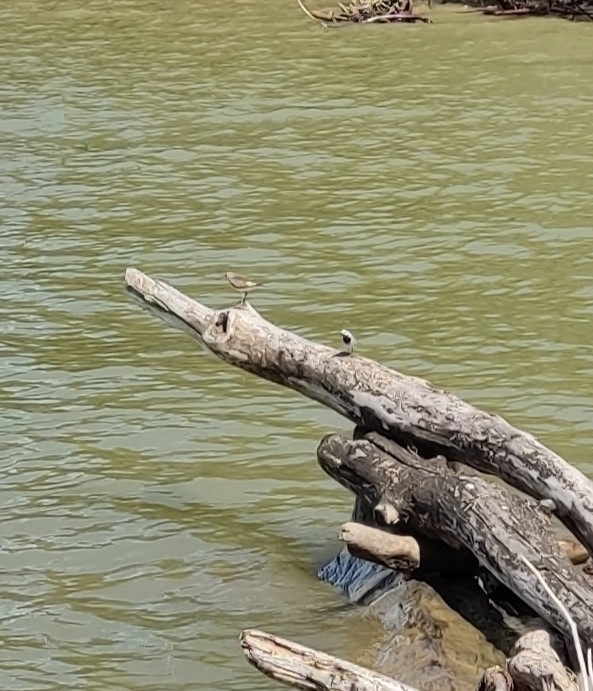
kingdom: Animalia
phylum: Chordata
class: Aves
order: Charadriiformes
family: Scolopacidae
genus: Actitis
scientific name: Actitis hypoleucos
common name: Common sandpiper
